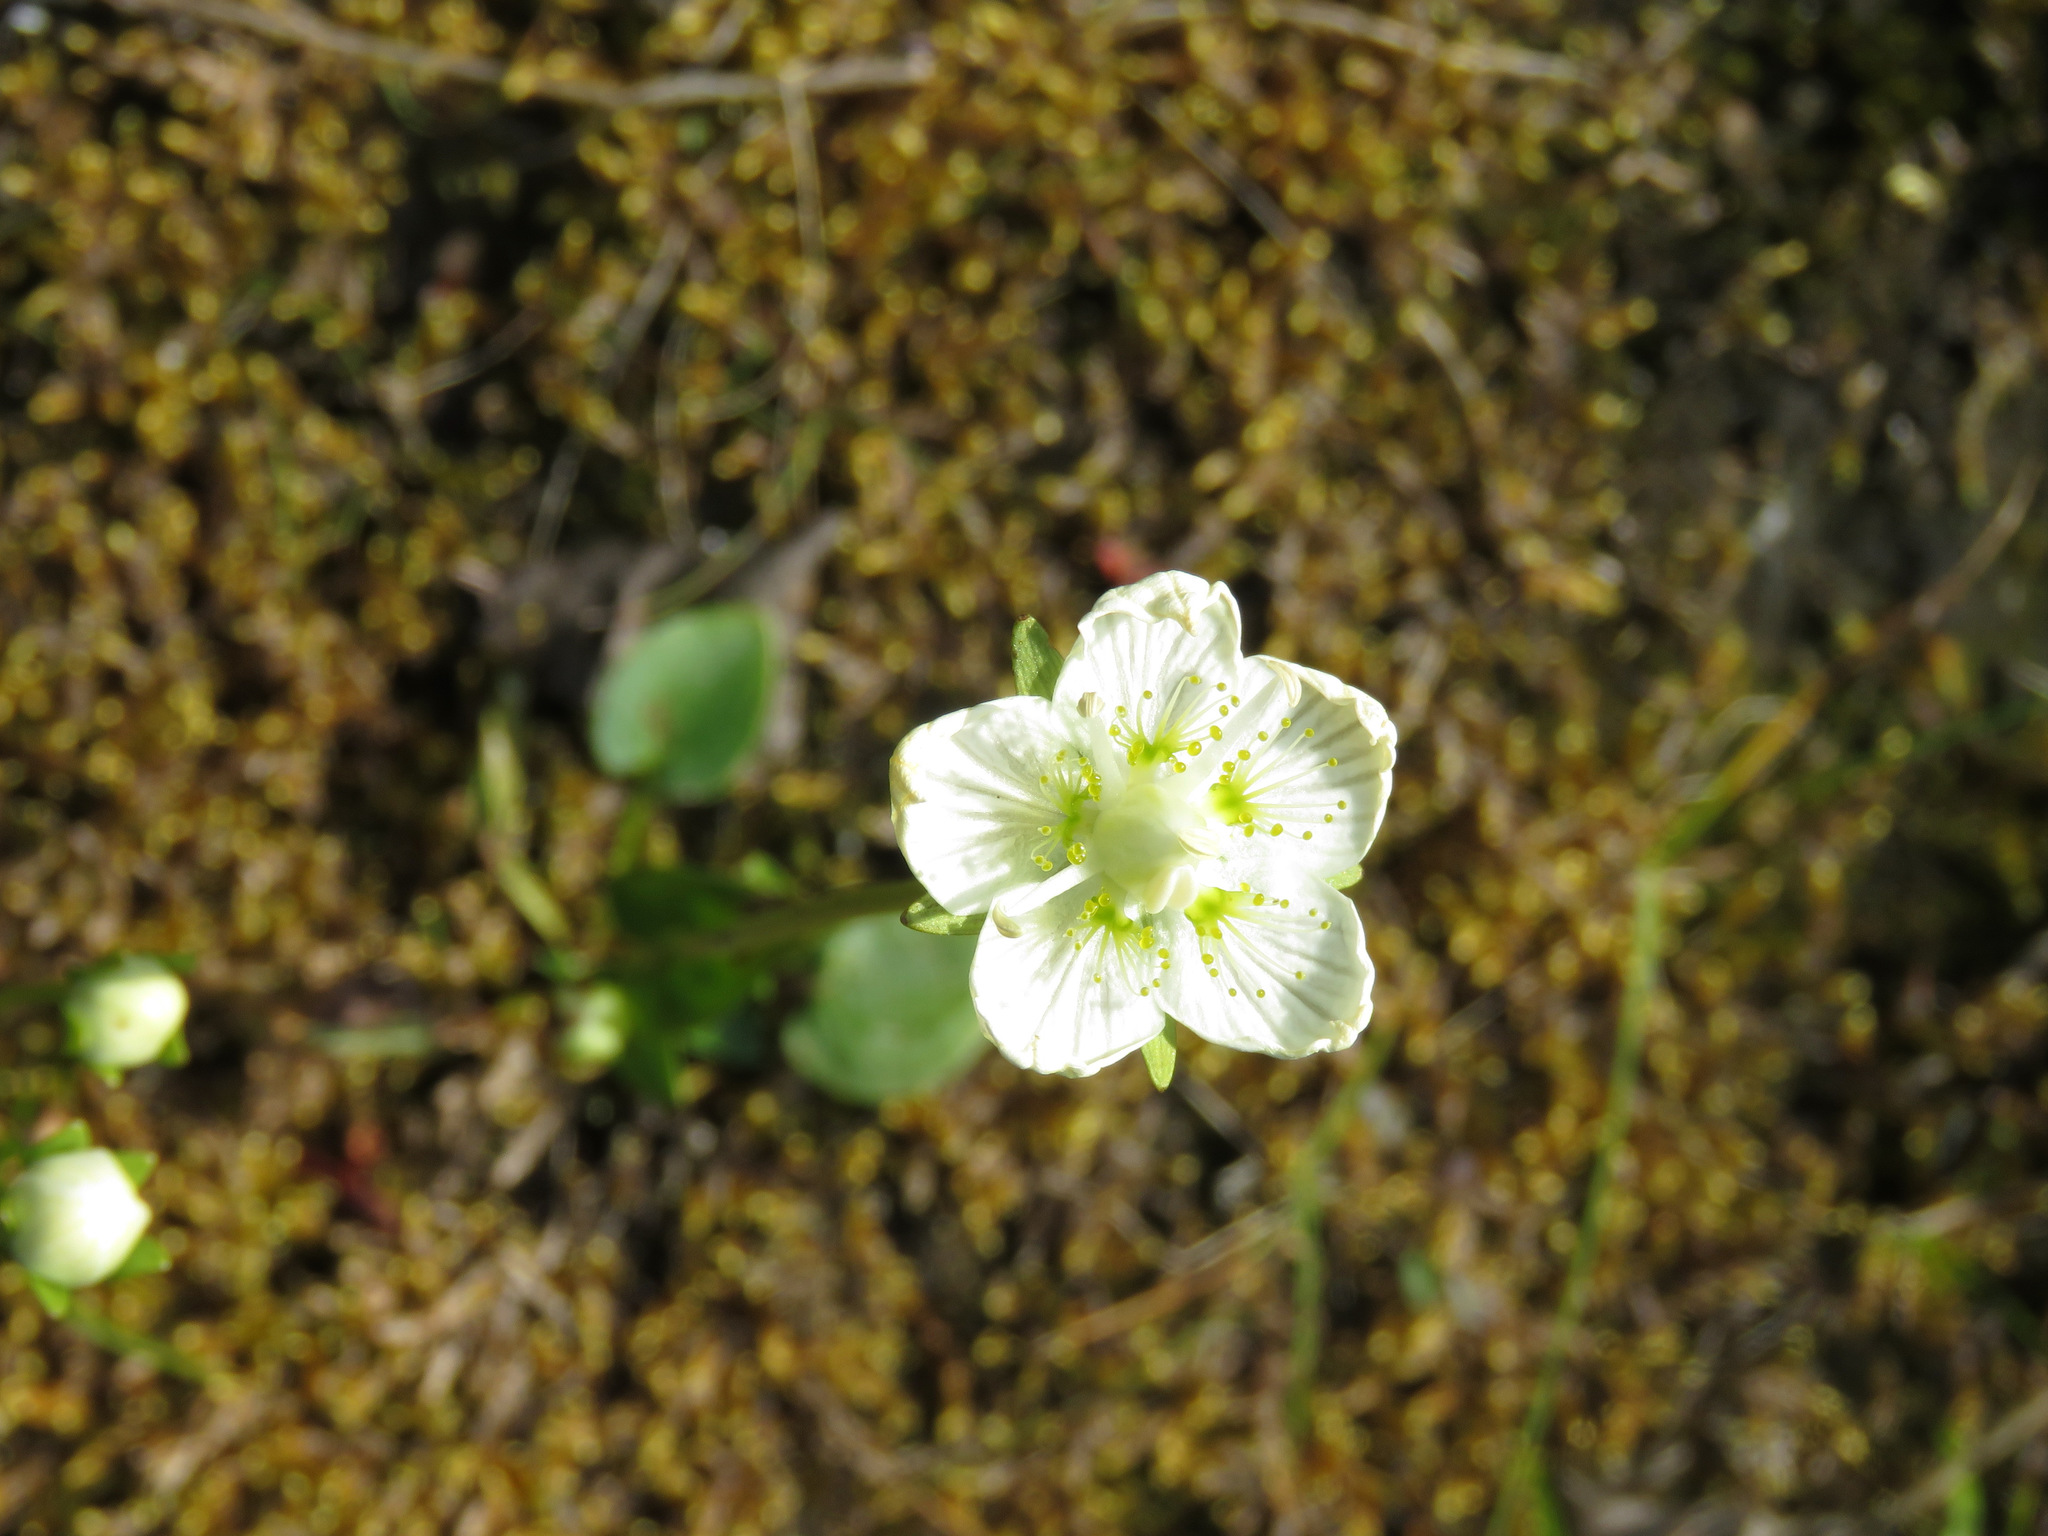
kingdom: Plantae
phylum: Tracheophyta
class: Magnoliopsida
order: Celastrales
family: Parnassiaceae
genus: Parnassia
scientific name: Parnassia palustris
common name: Grass-of-parnassus
